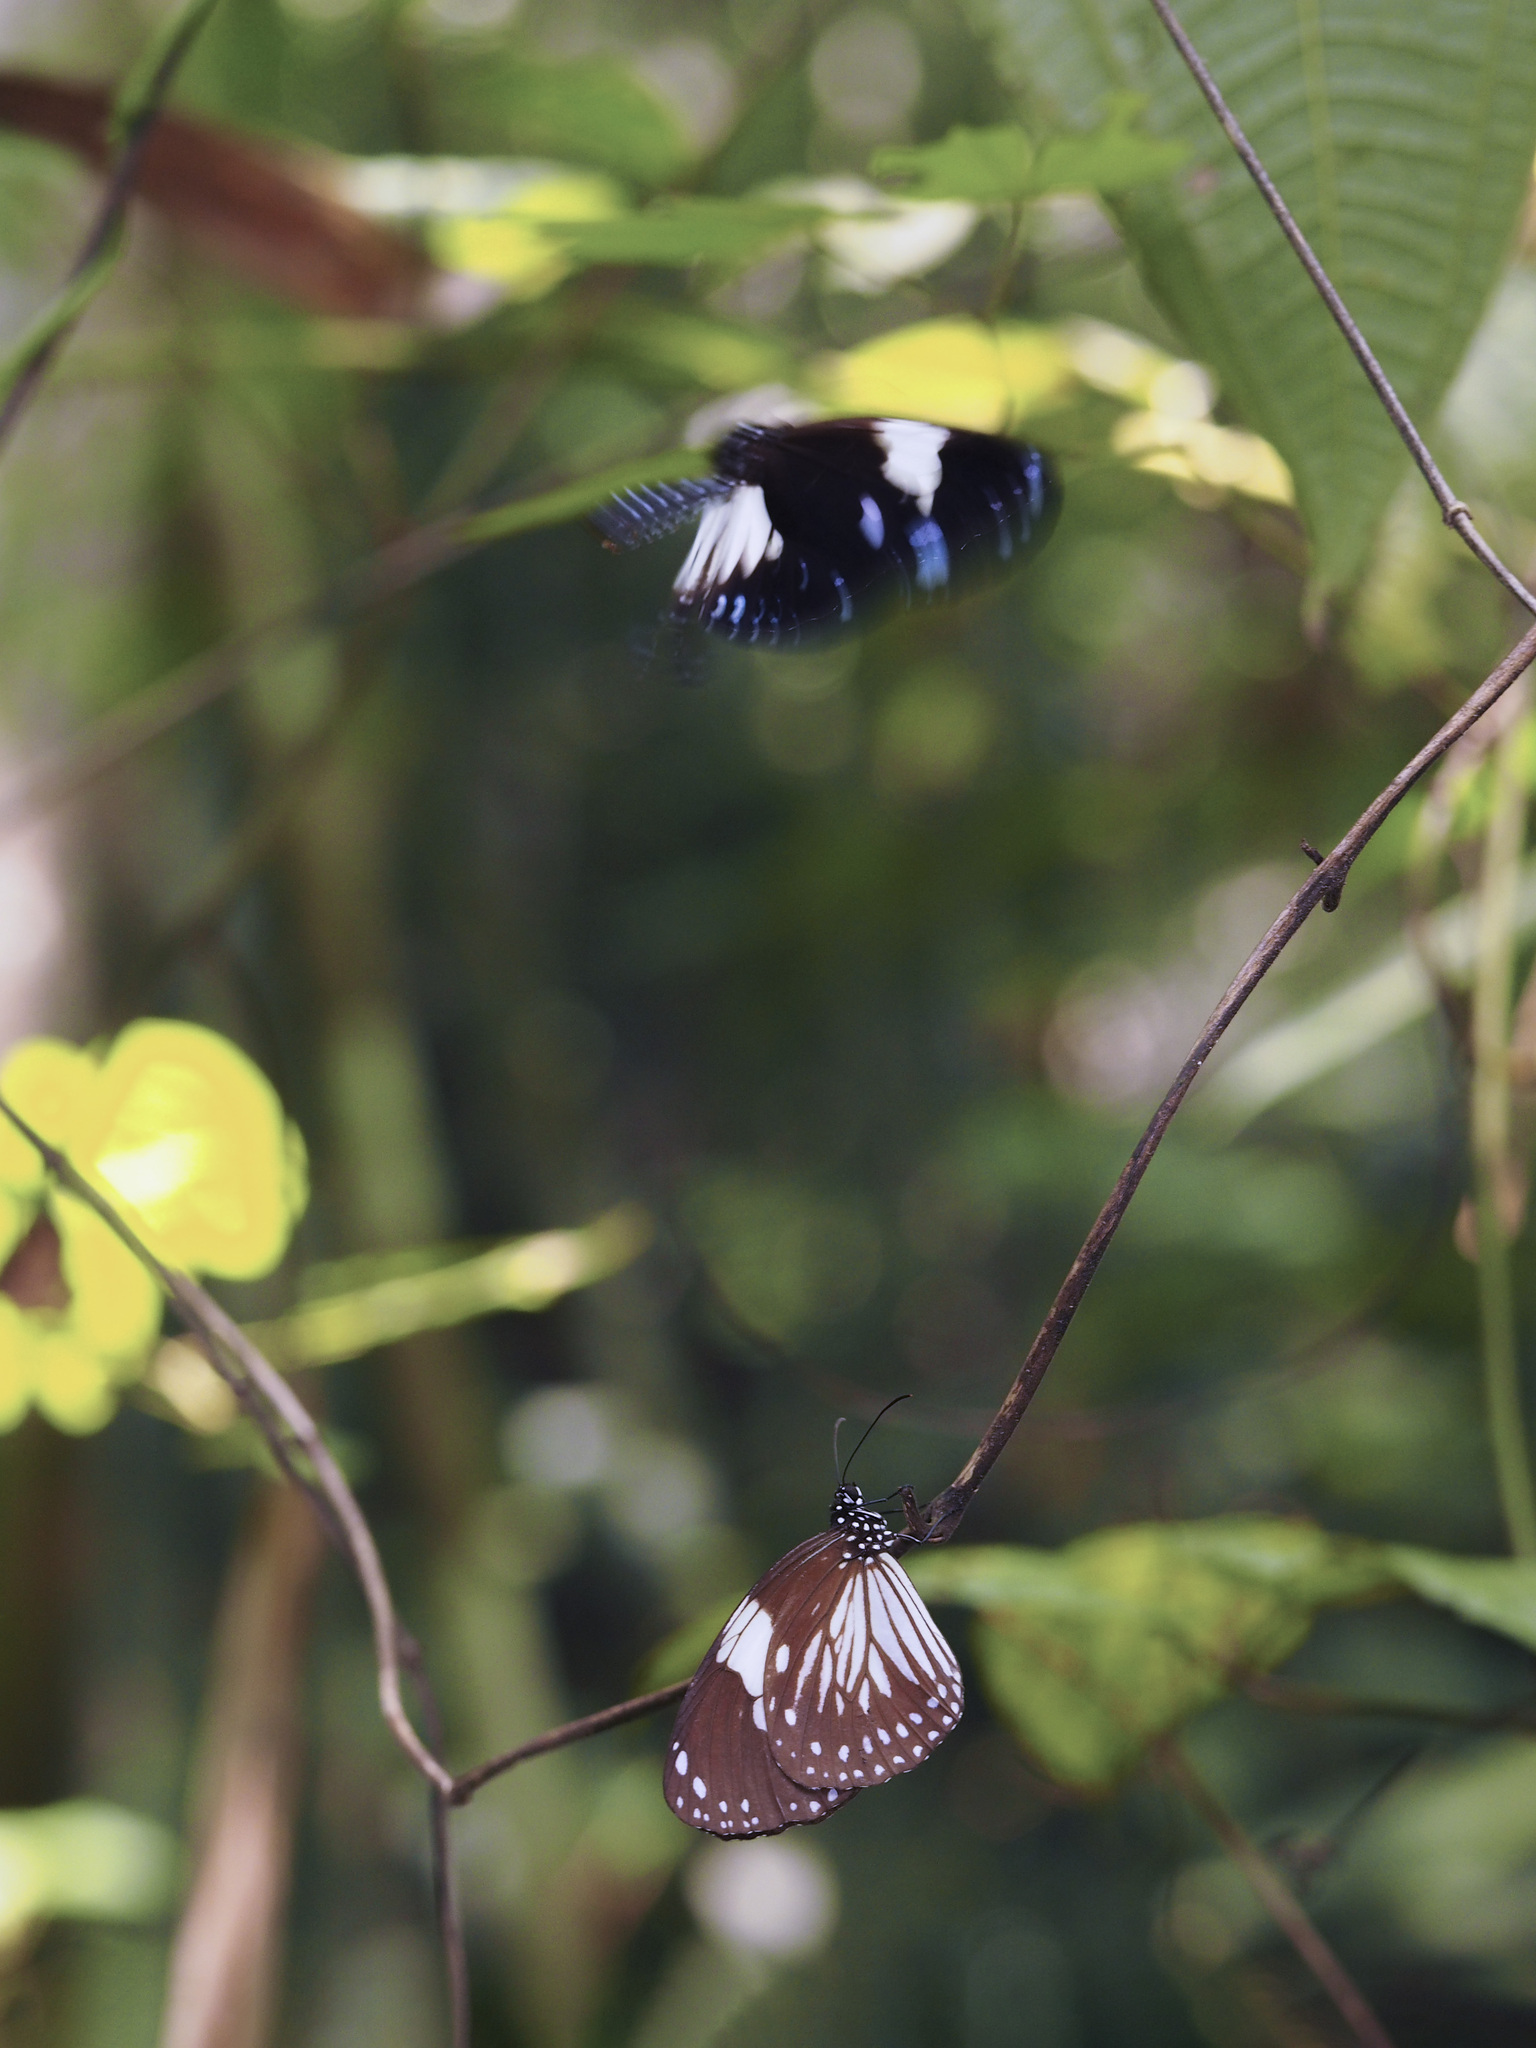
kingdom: Animalia
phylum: Arthropoda
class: Insecta
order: Lepidoptera
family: Nymphalidae
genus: Euploea
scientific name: Euploea radamanthus
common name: Magpie crow butterfly
